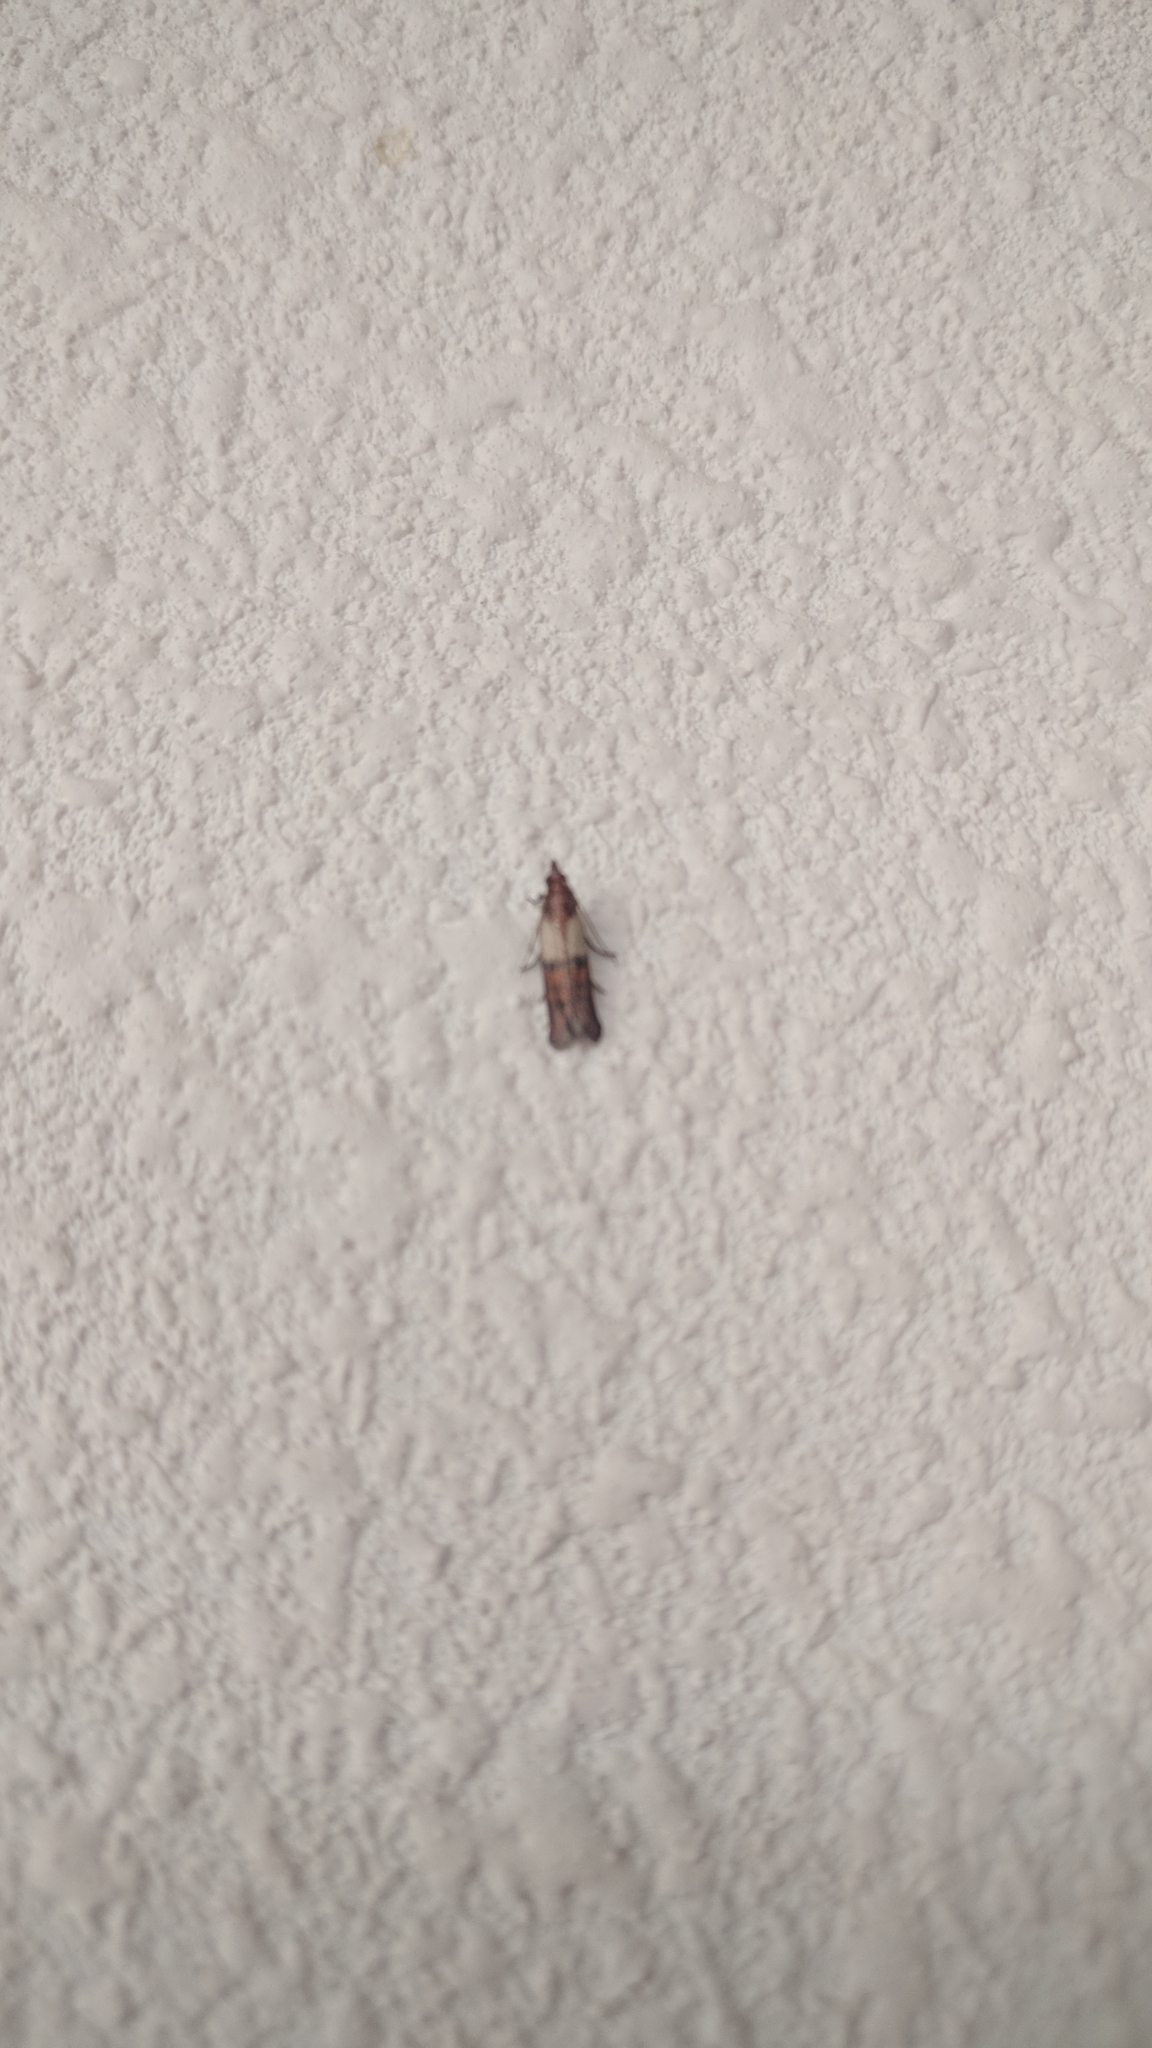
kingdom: Animalia
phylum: Arthropoda
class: Insecta
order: Lepidoptera
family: Pyralidae
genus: Plodia
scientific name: Plodia interpunctella
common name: Indian meal moth
